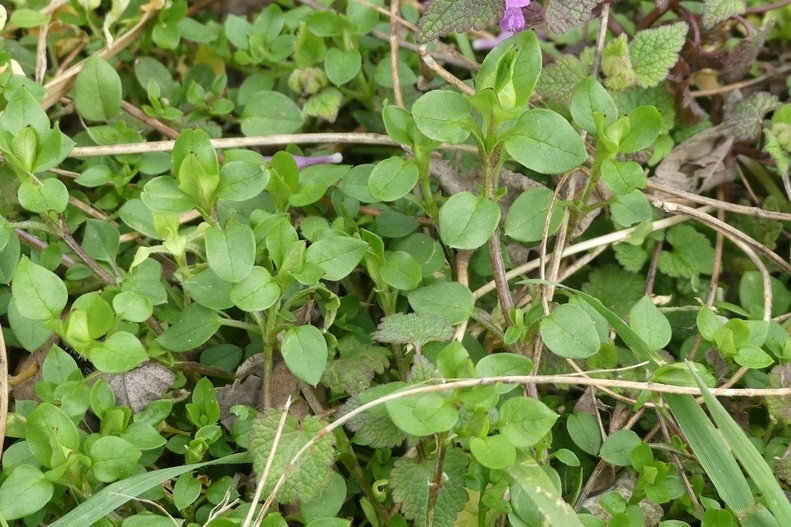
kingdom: Plantae
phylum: Tracheophyta
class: Magnoliopsida
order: Caryophyllales
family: Caryophyllaceae
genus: Stellaria
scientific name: Stellaria
